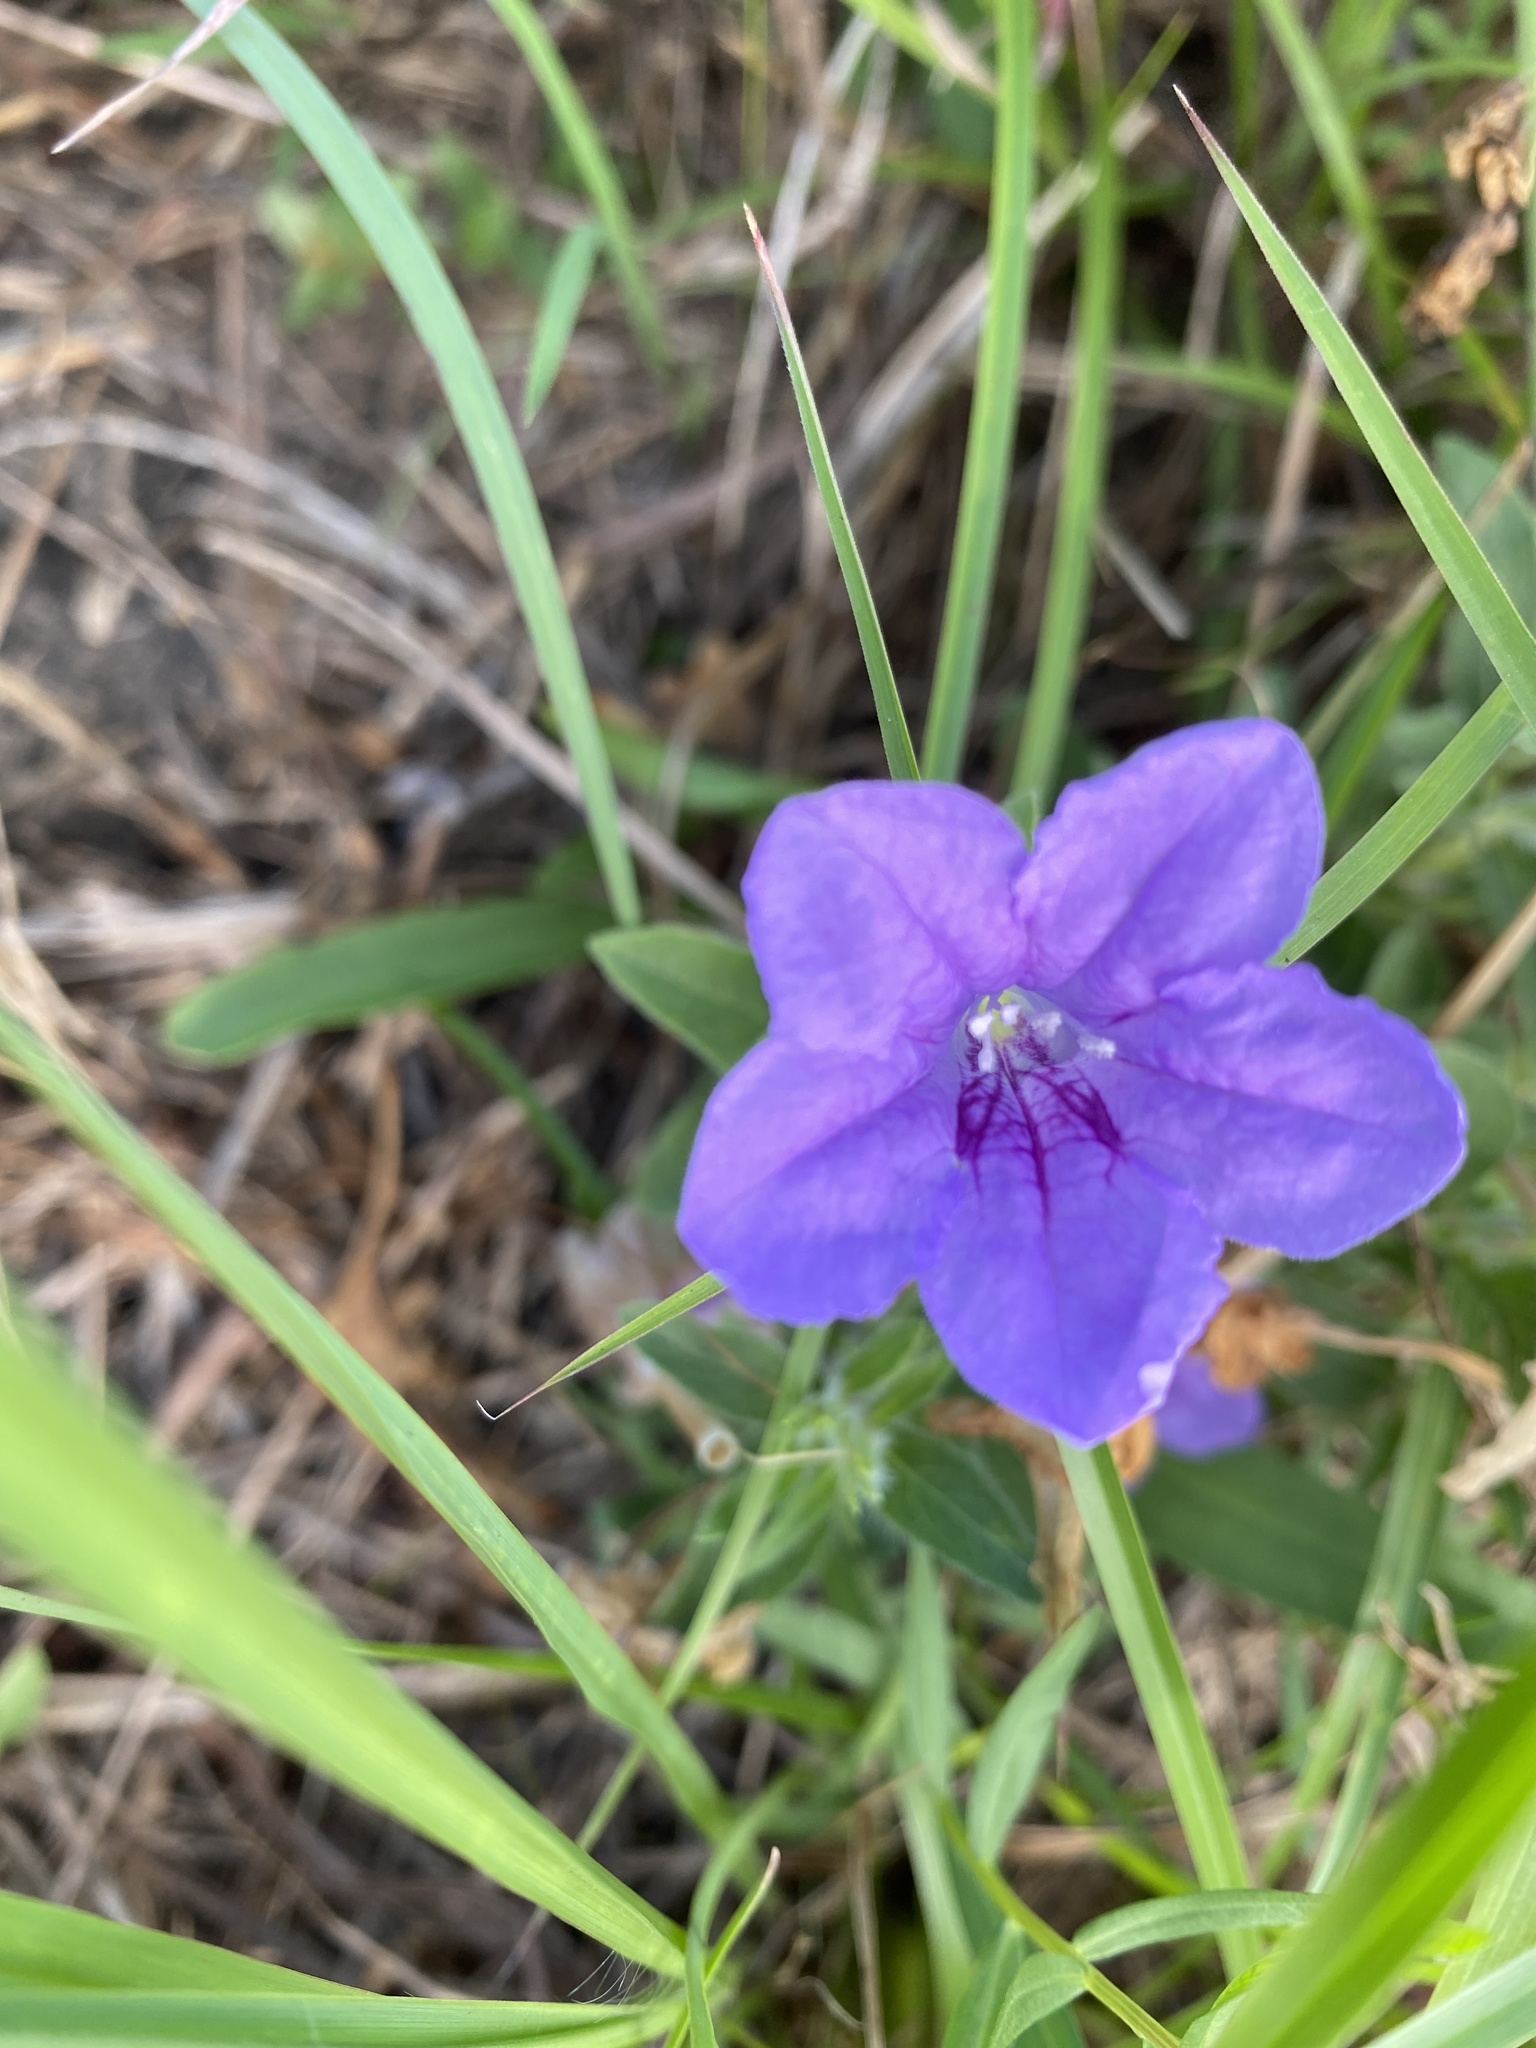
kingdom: Plantae
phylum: Tracheophyta
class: Magnoliopsida
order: Lamiales
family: Acanthaceae
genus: Ruellia
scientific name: Ruellia humilis
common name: Fringe-leaf ruellia
